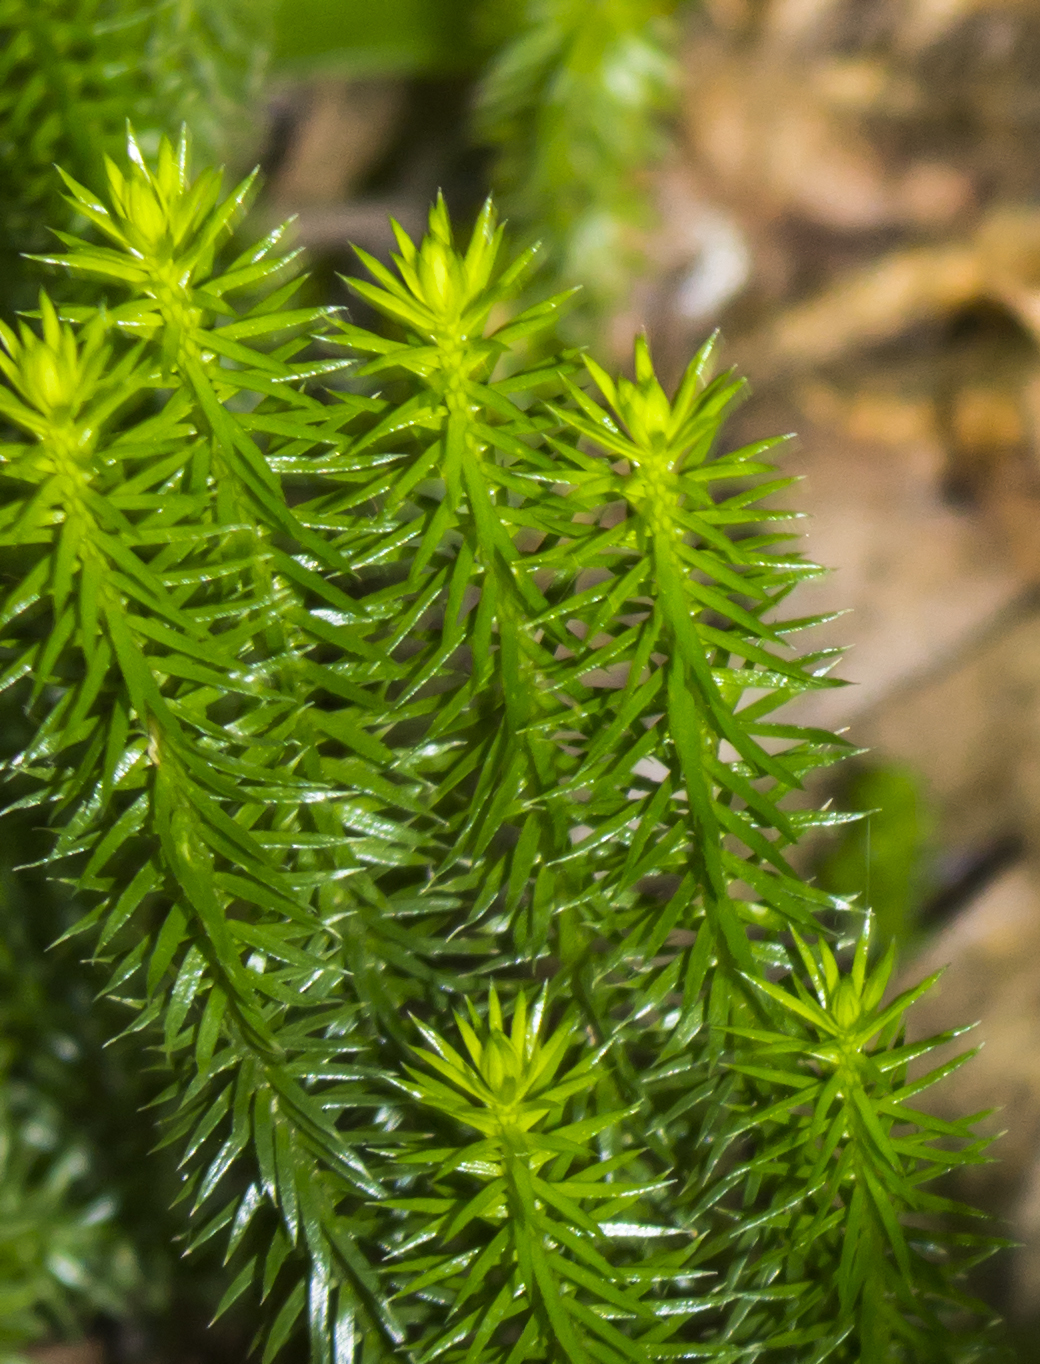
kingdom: Plantae
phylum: Tracheophyta
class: Lycopodiopsida
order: Lycopodiales
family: Lycopodiaceae
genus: Huperzia
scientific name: Huperzia lucidula
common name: Shining clubmoss
